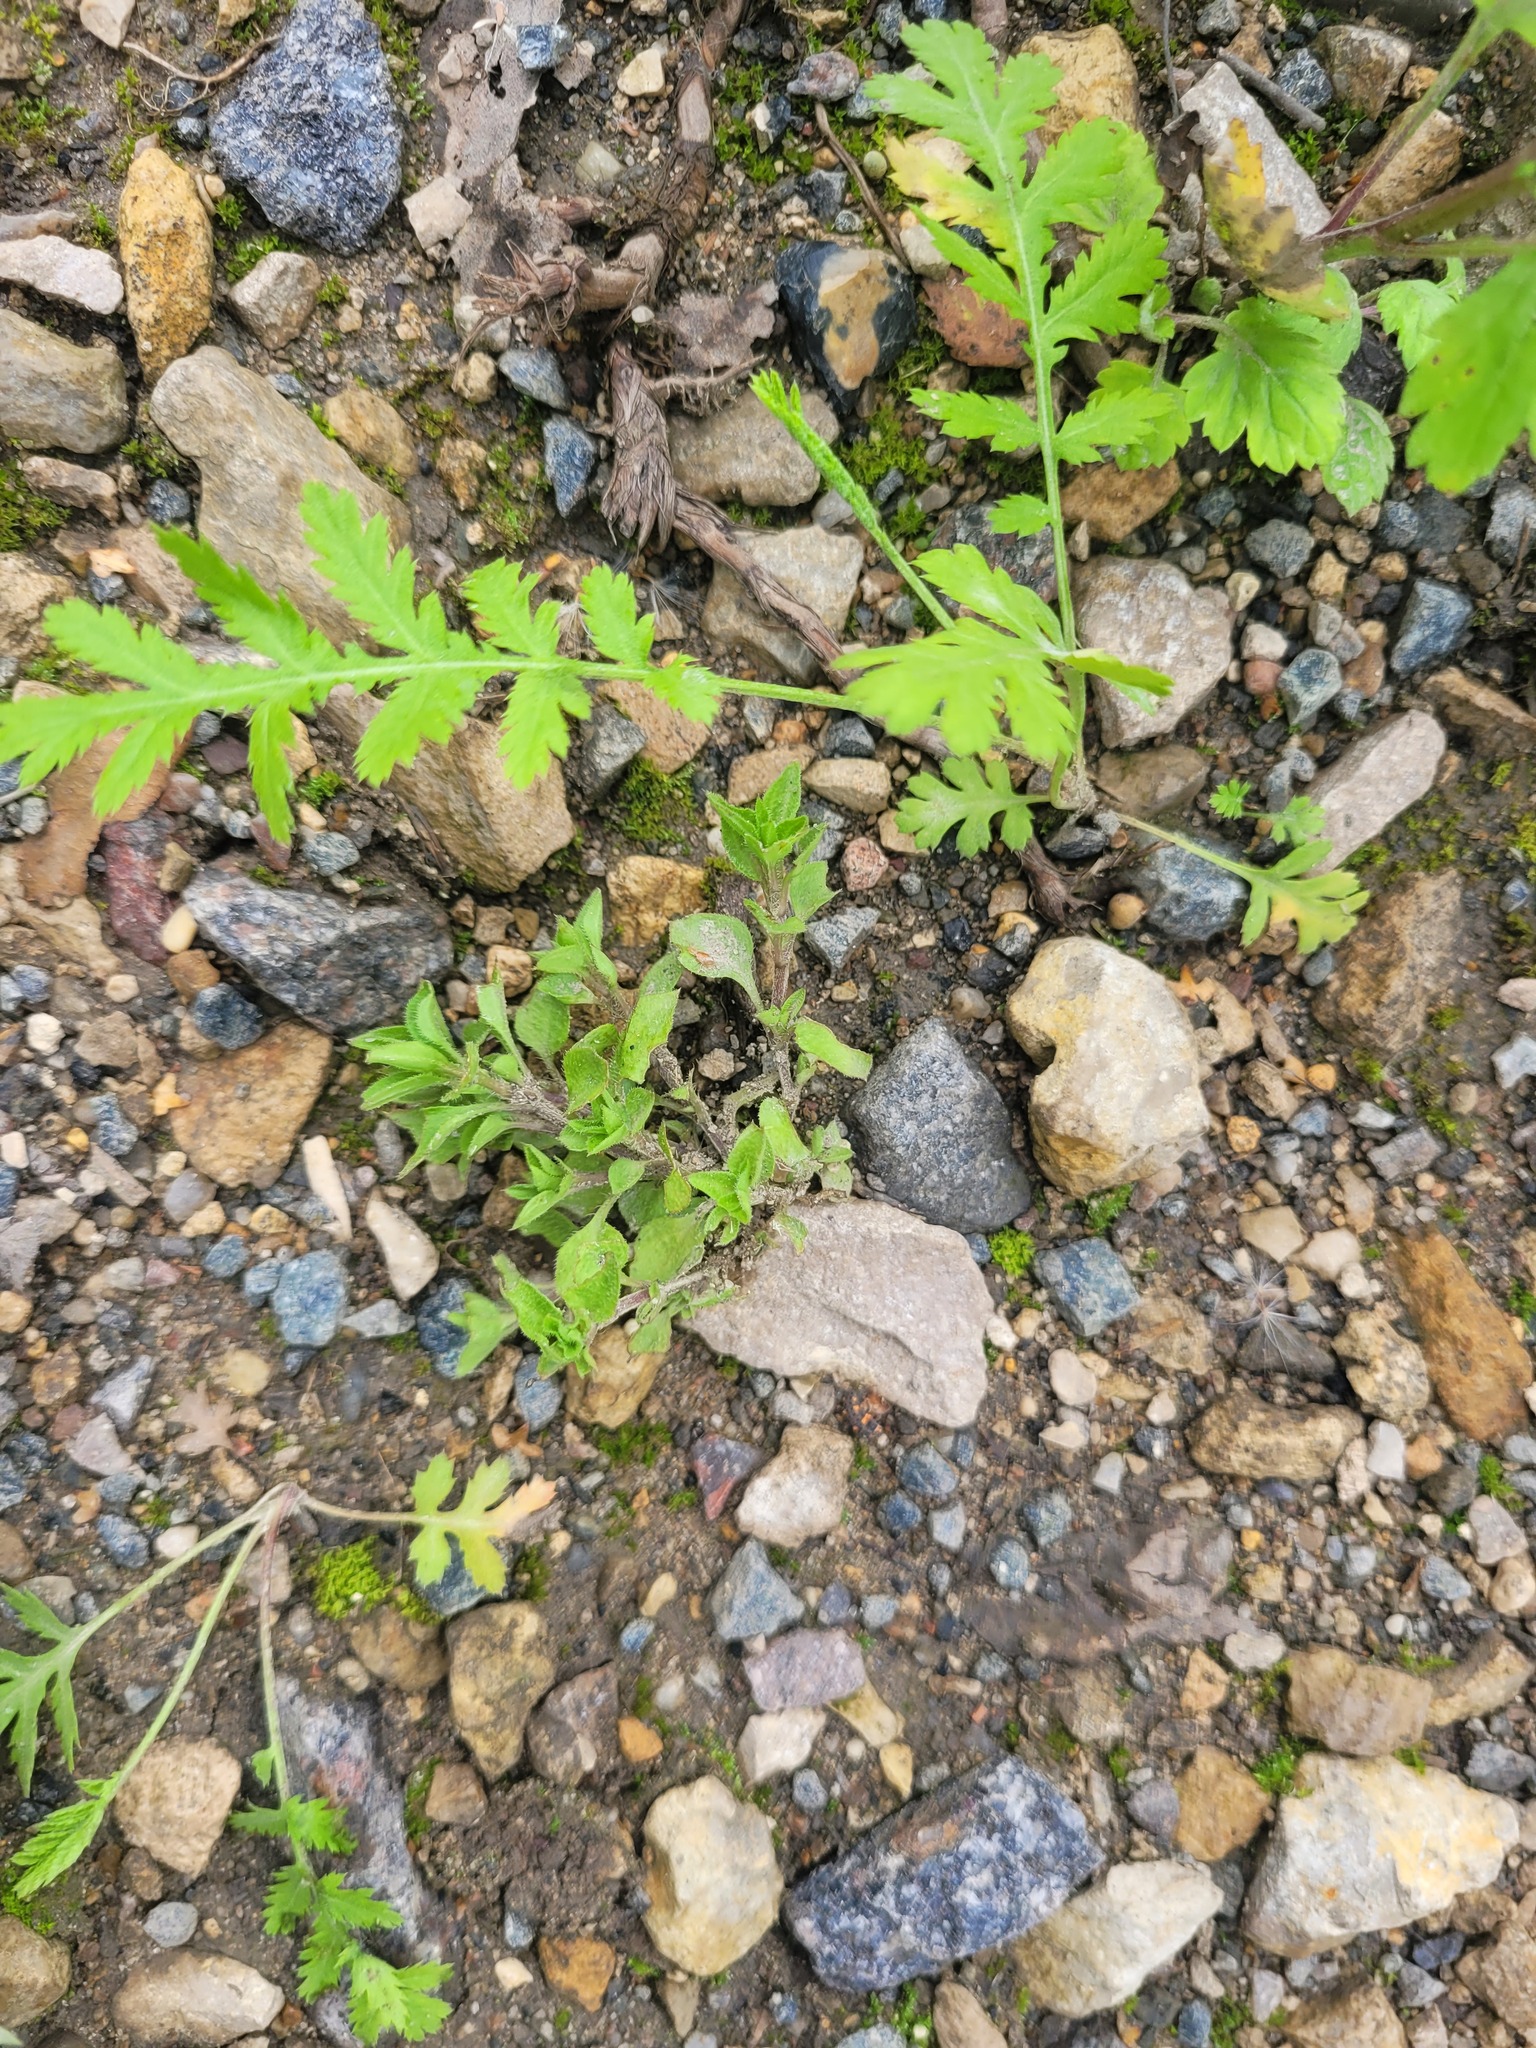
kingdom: Plantae
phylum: Tracheophyta
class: Magnoliopsida
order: Caryophyllales
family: Caryophyllaceae
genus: Moehringia
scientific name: Moehringia trinervia
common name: Three-nerved sandwort
